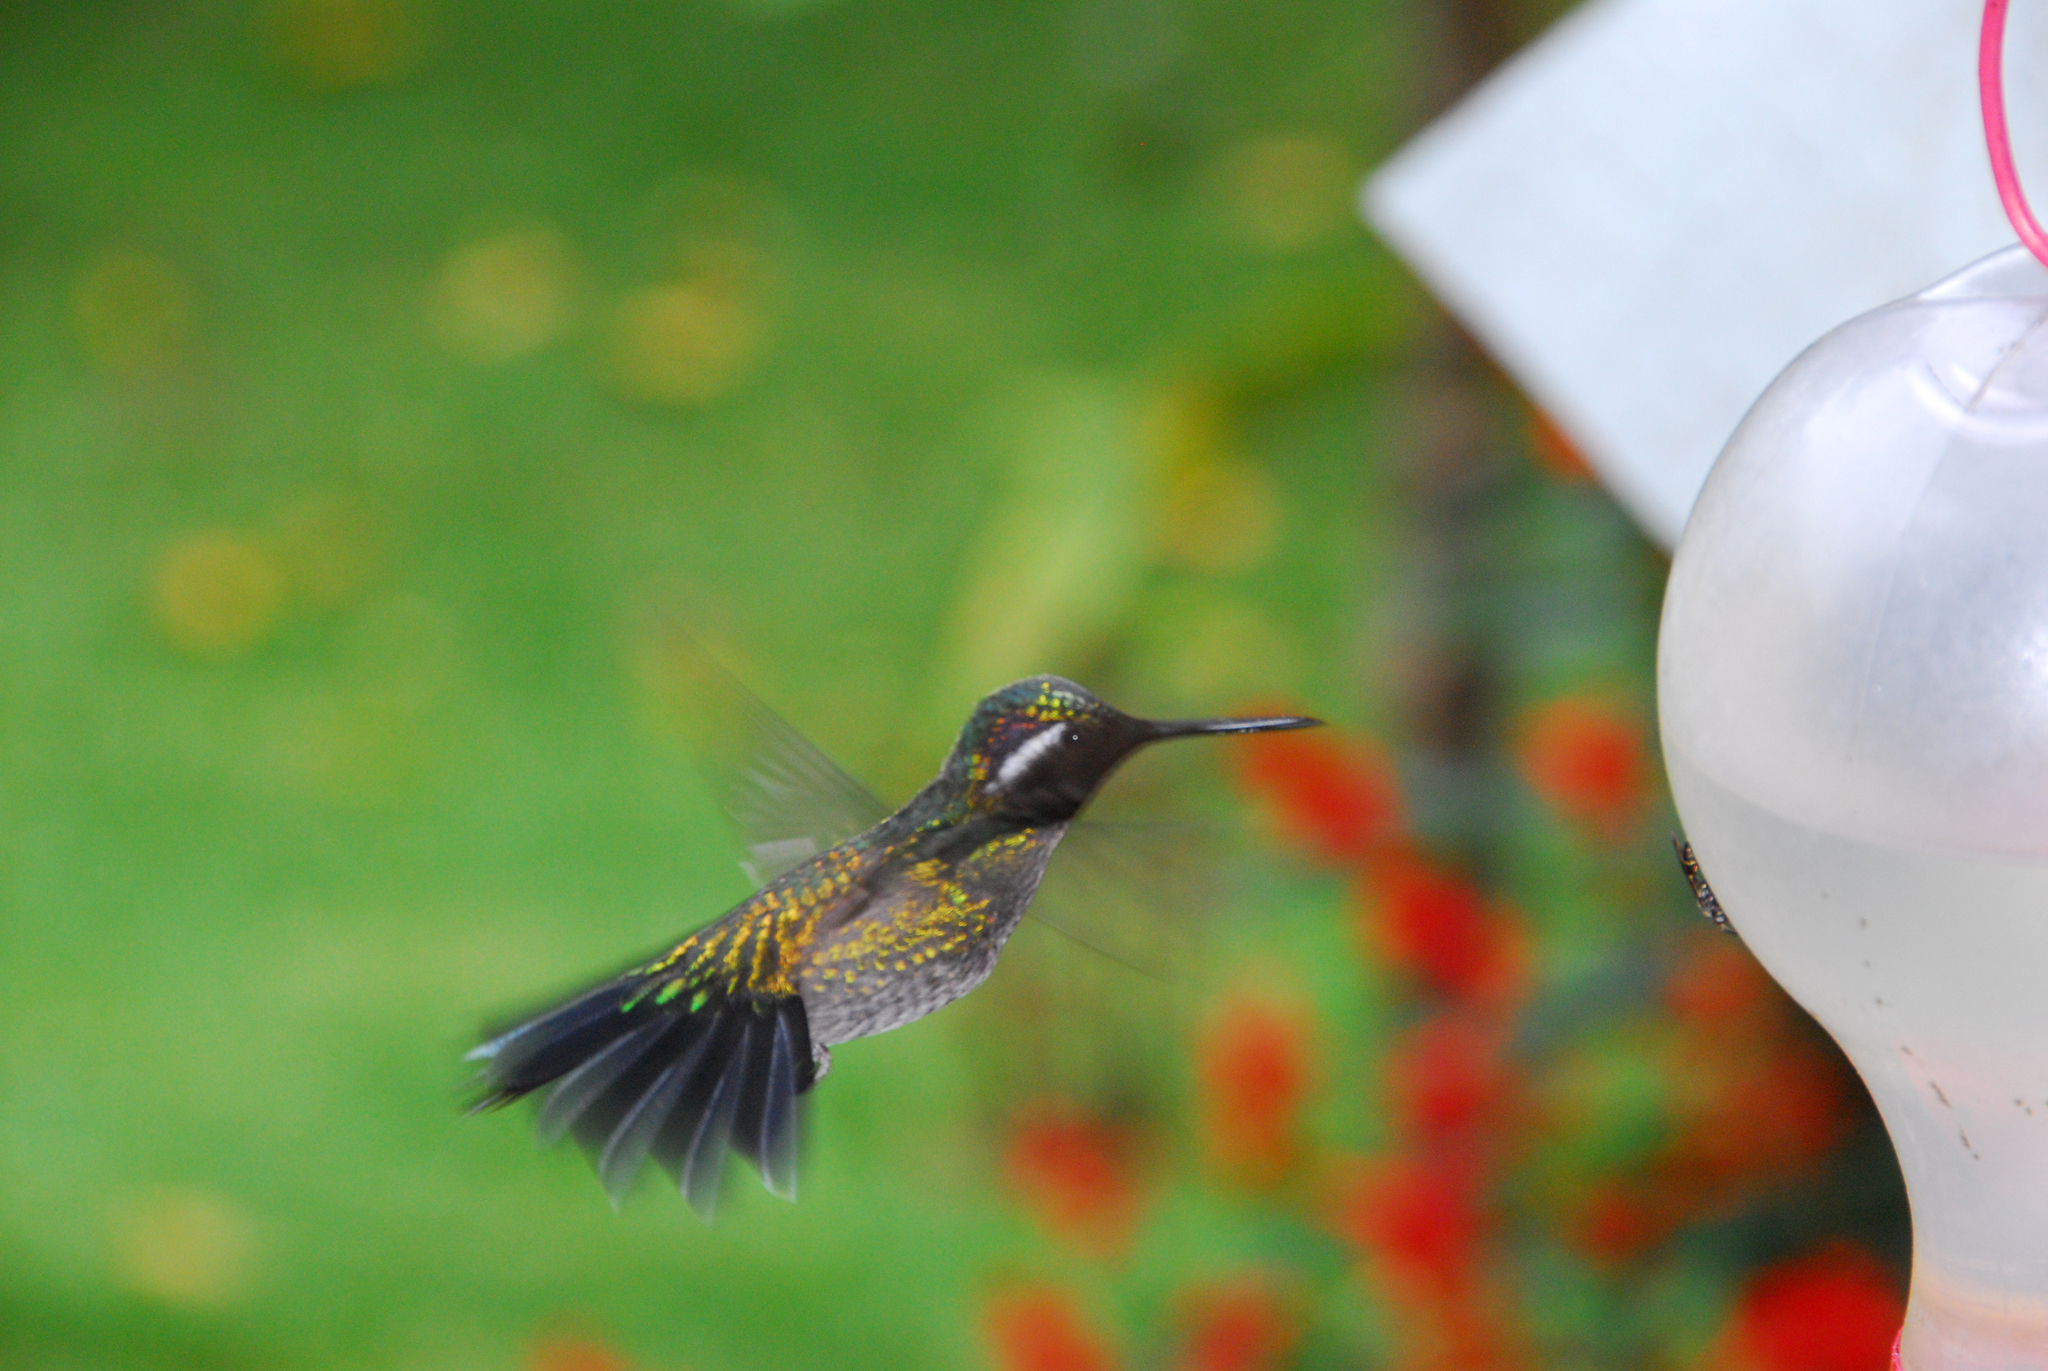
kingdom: Animalia
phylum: Chordata
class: Aves
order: Apodiformes
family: Trochilidae
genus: Lampornis
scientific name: Lampornis calolaemus
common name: Purple-throated mountain-gem
